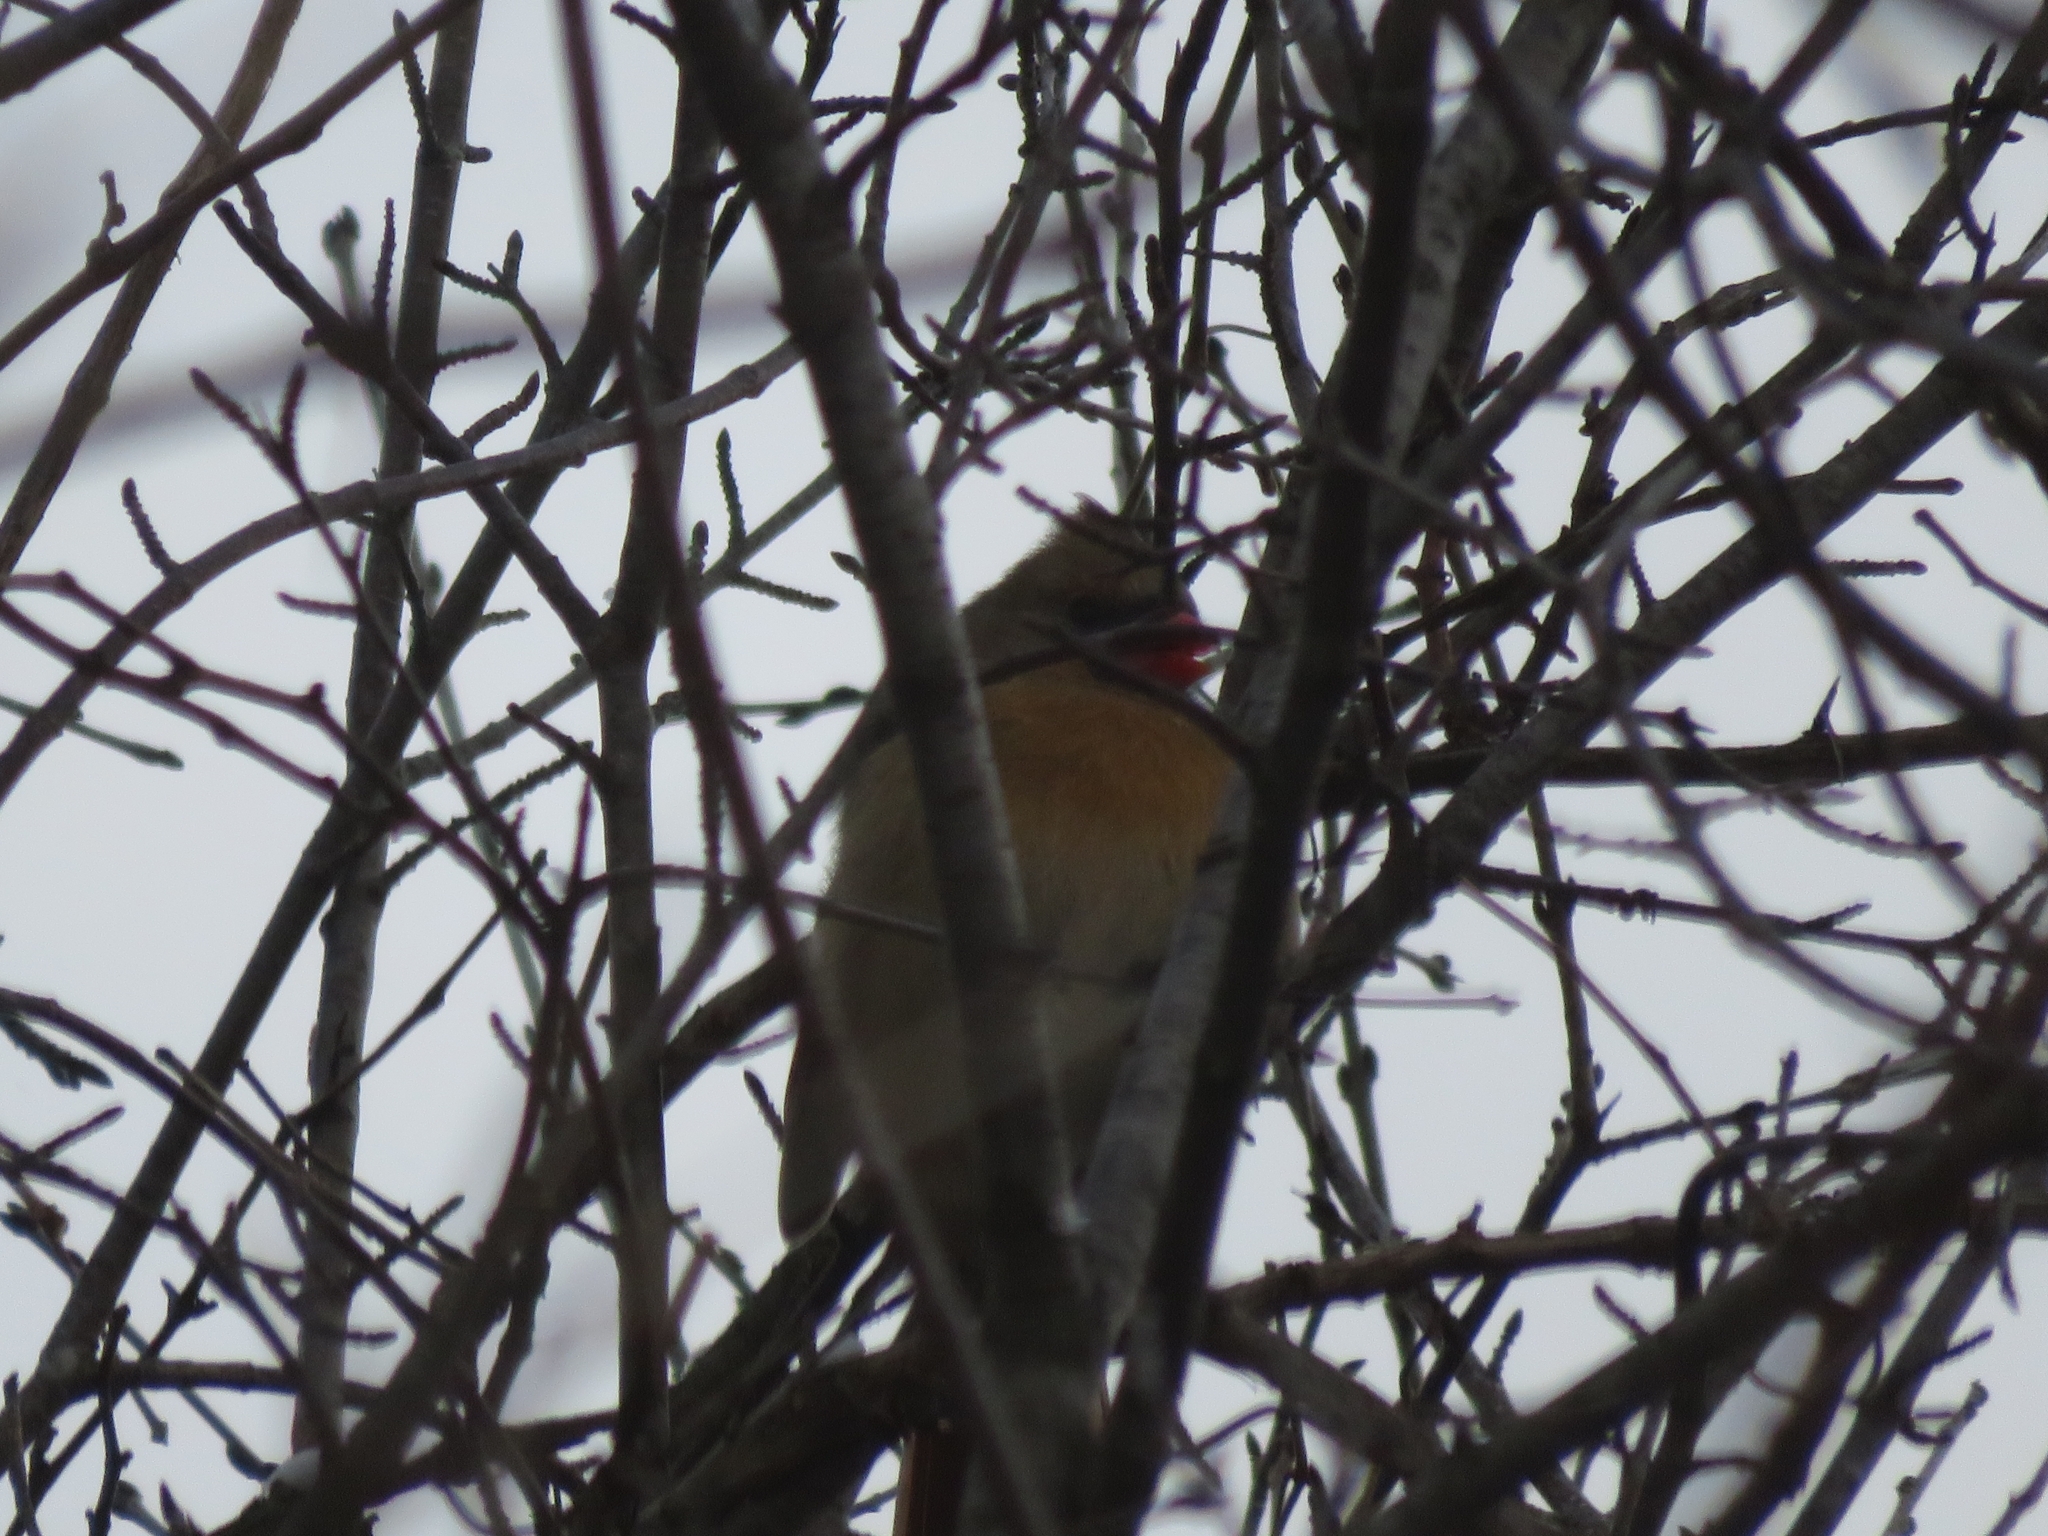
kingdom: Animalia
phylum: Chordata
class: Aves
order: Passeriformes
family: Cardinalidae
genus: Cardinalis
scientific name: Cardinalis cardinalis
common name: Northern cardinal
